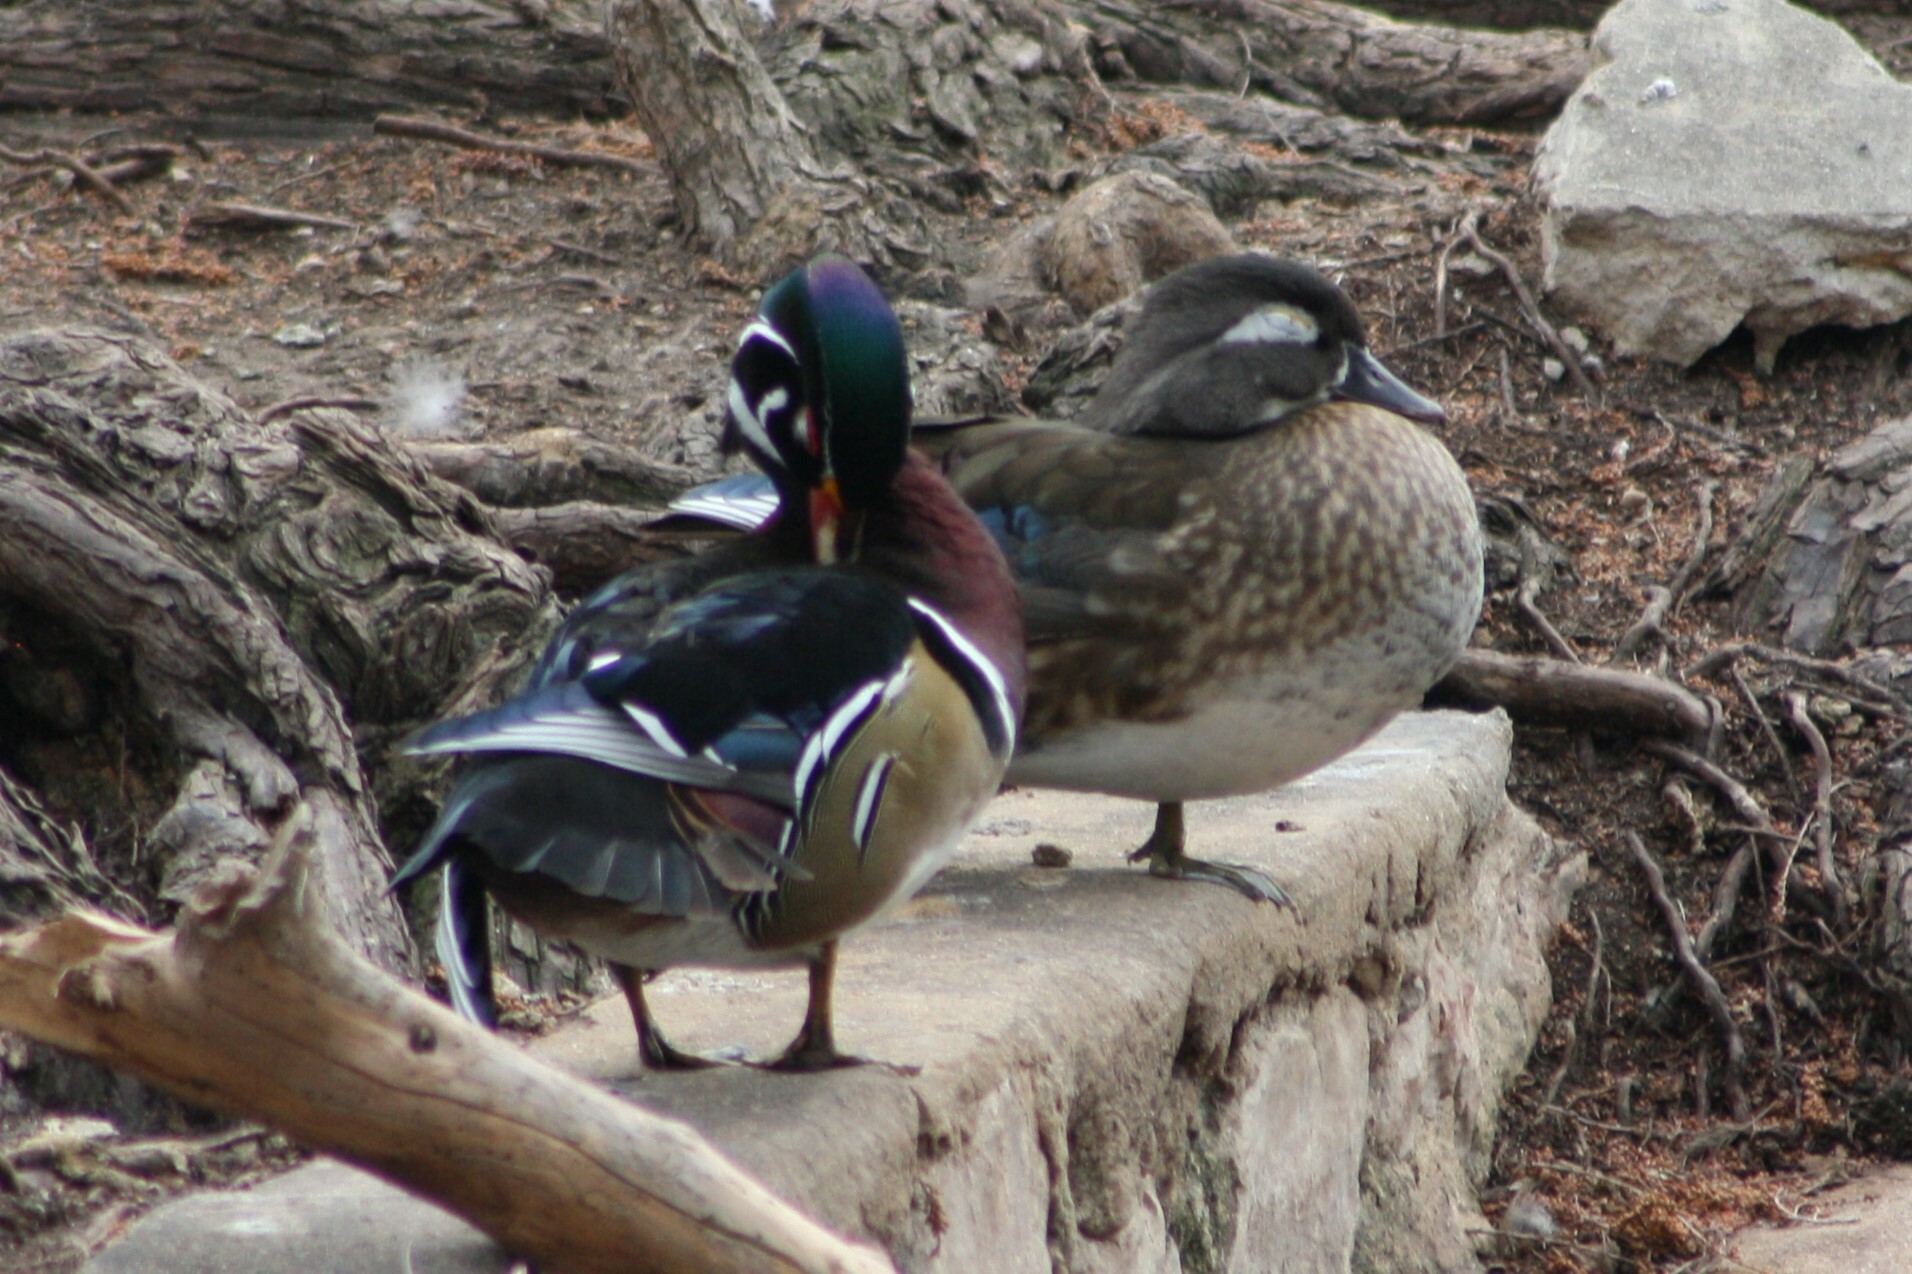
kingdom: Animalia
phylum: Chordata
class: Aves
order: Anseriformes
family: Anatidae
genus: Aix
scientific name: Aix sponsa
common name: Wood duck
